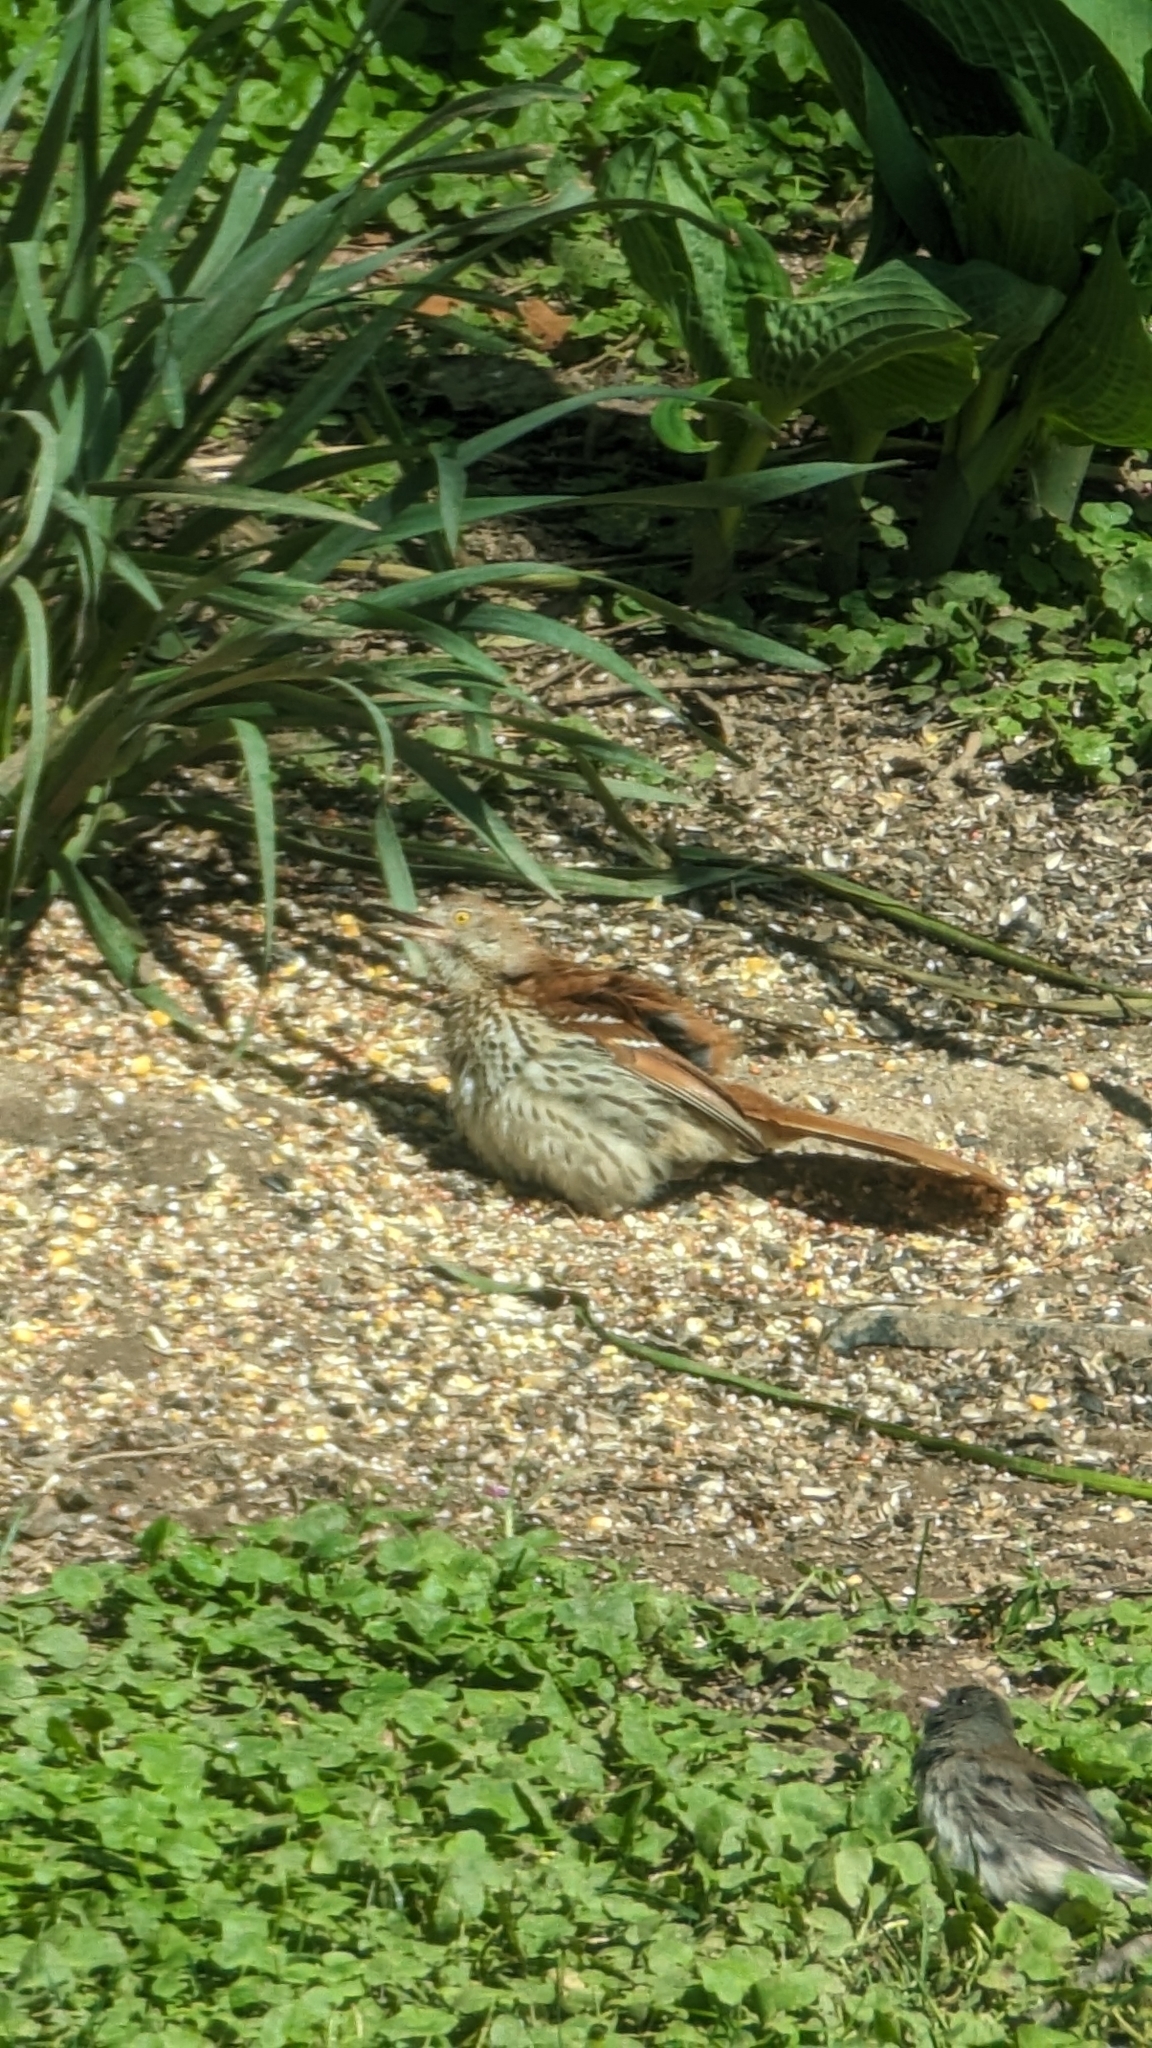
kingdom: Animalia
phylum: Chordata
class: Aves
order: Passeriformes
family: Mimidae
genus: Toxostoma
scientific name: Toxostoma rufum
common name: Brown thrasher
